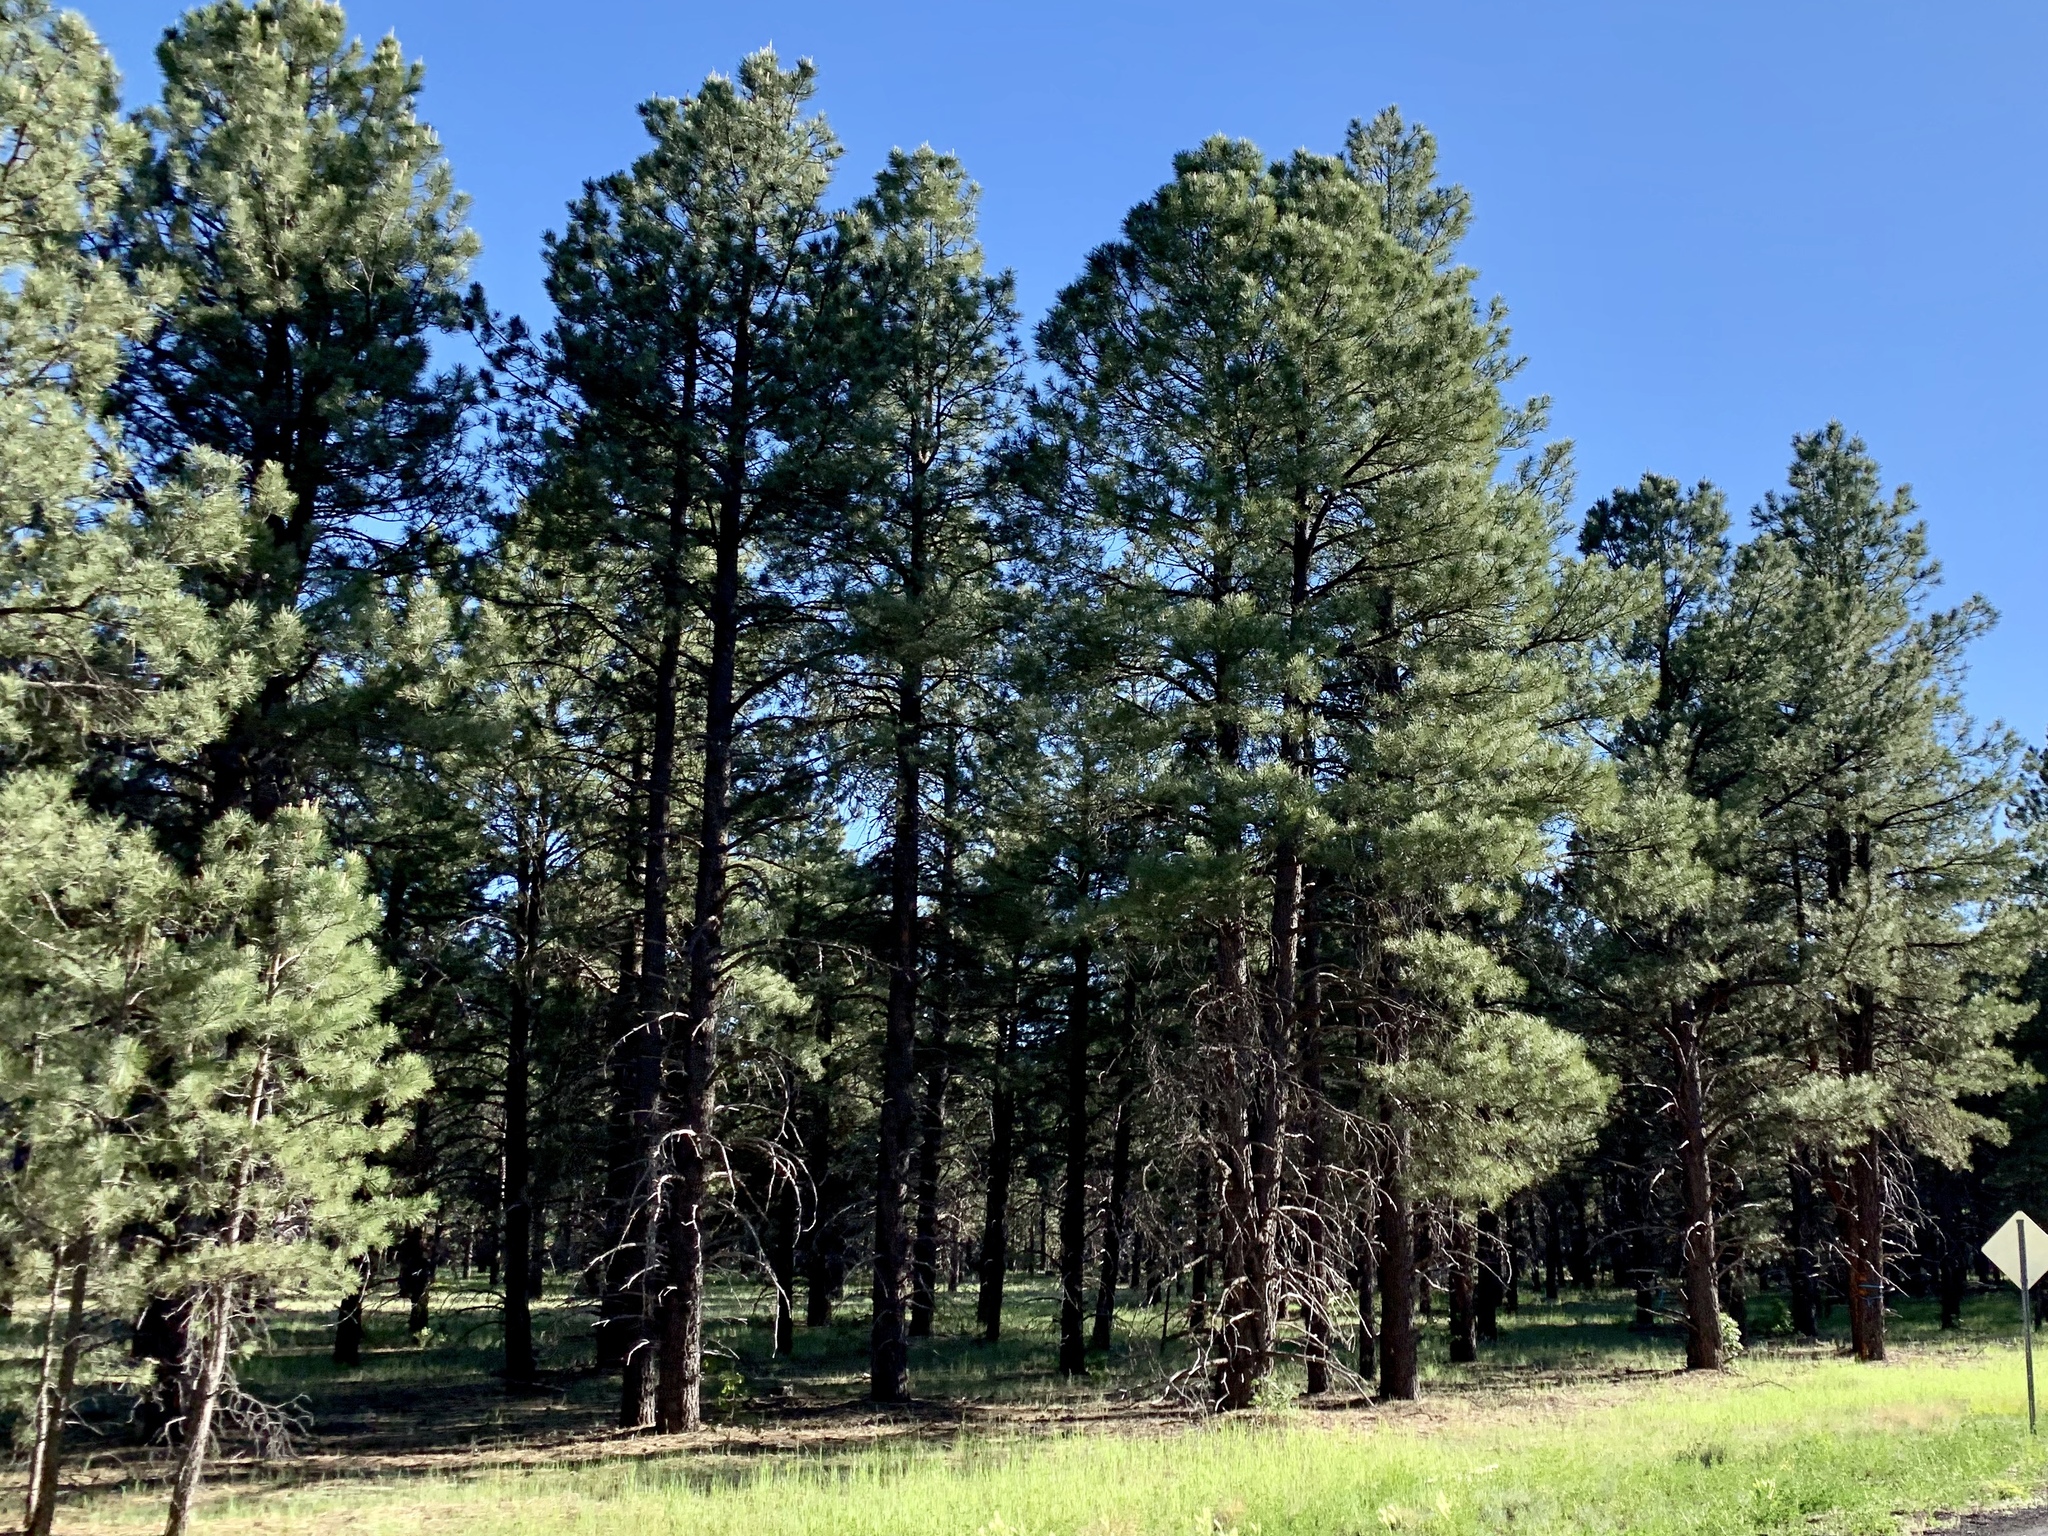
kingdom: Plantae
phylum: Tracheophyta
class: Pinopsida
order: Pinales
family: Pinaceae
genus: Pinus
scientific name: Pinus ponderosa
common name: Western yellow-pine
